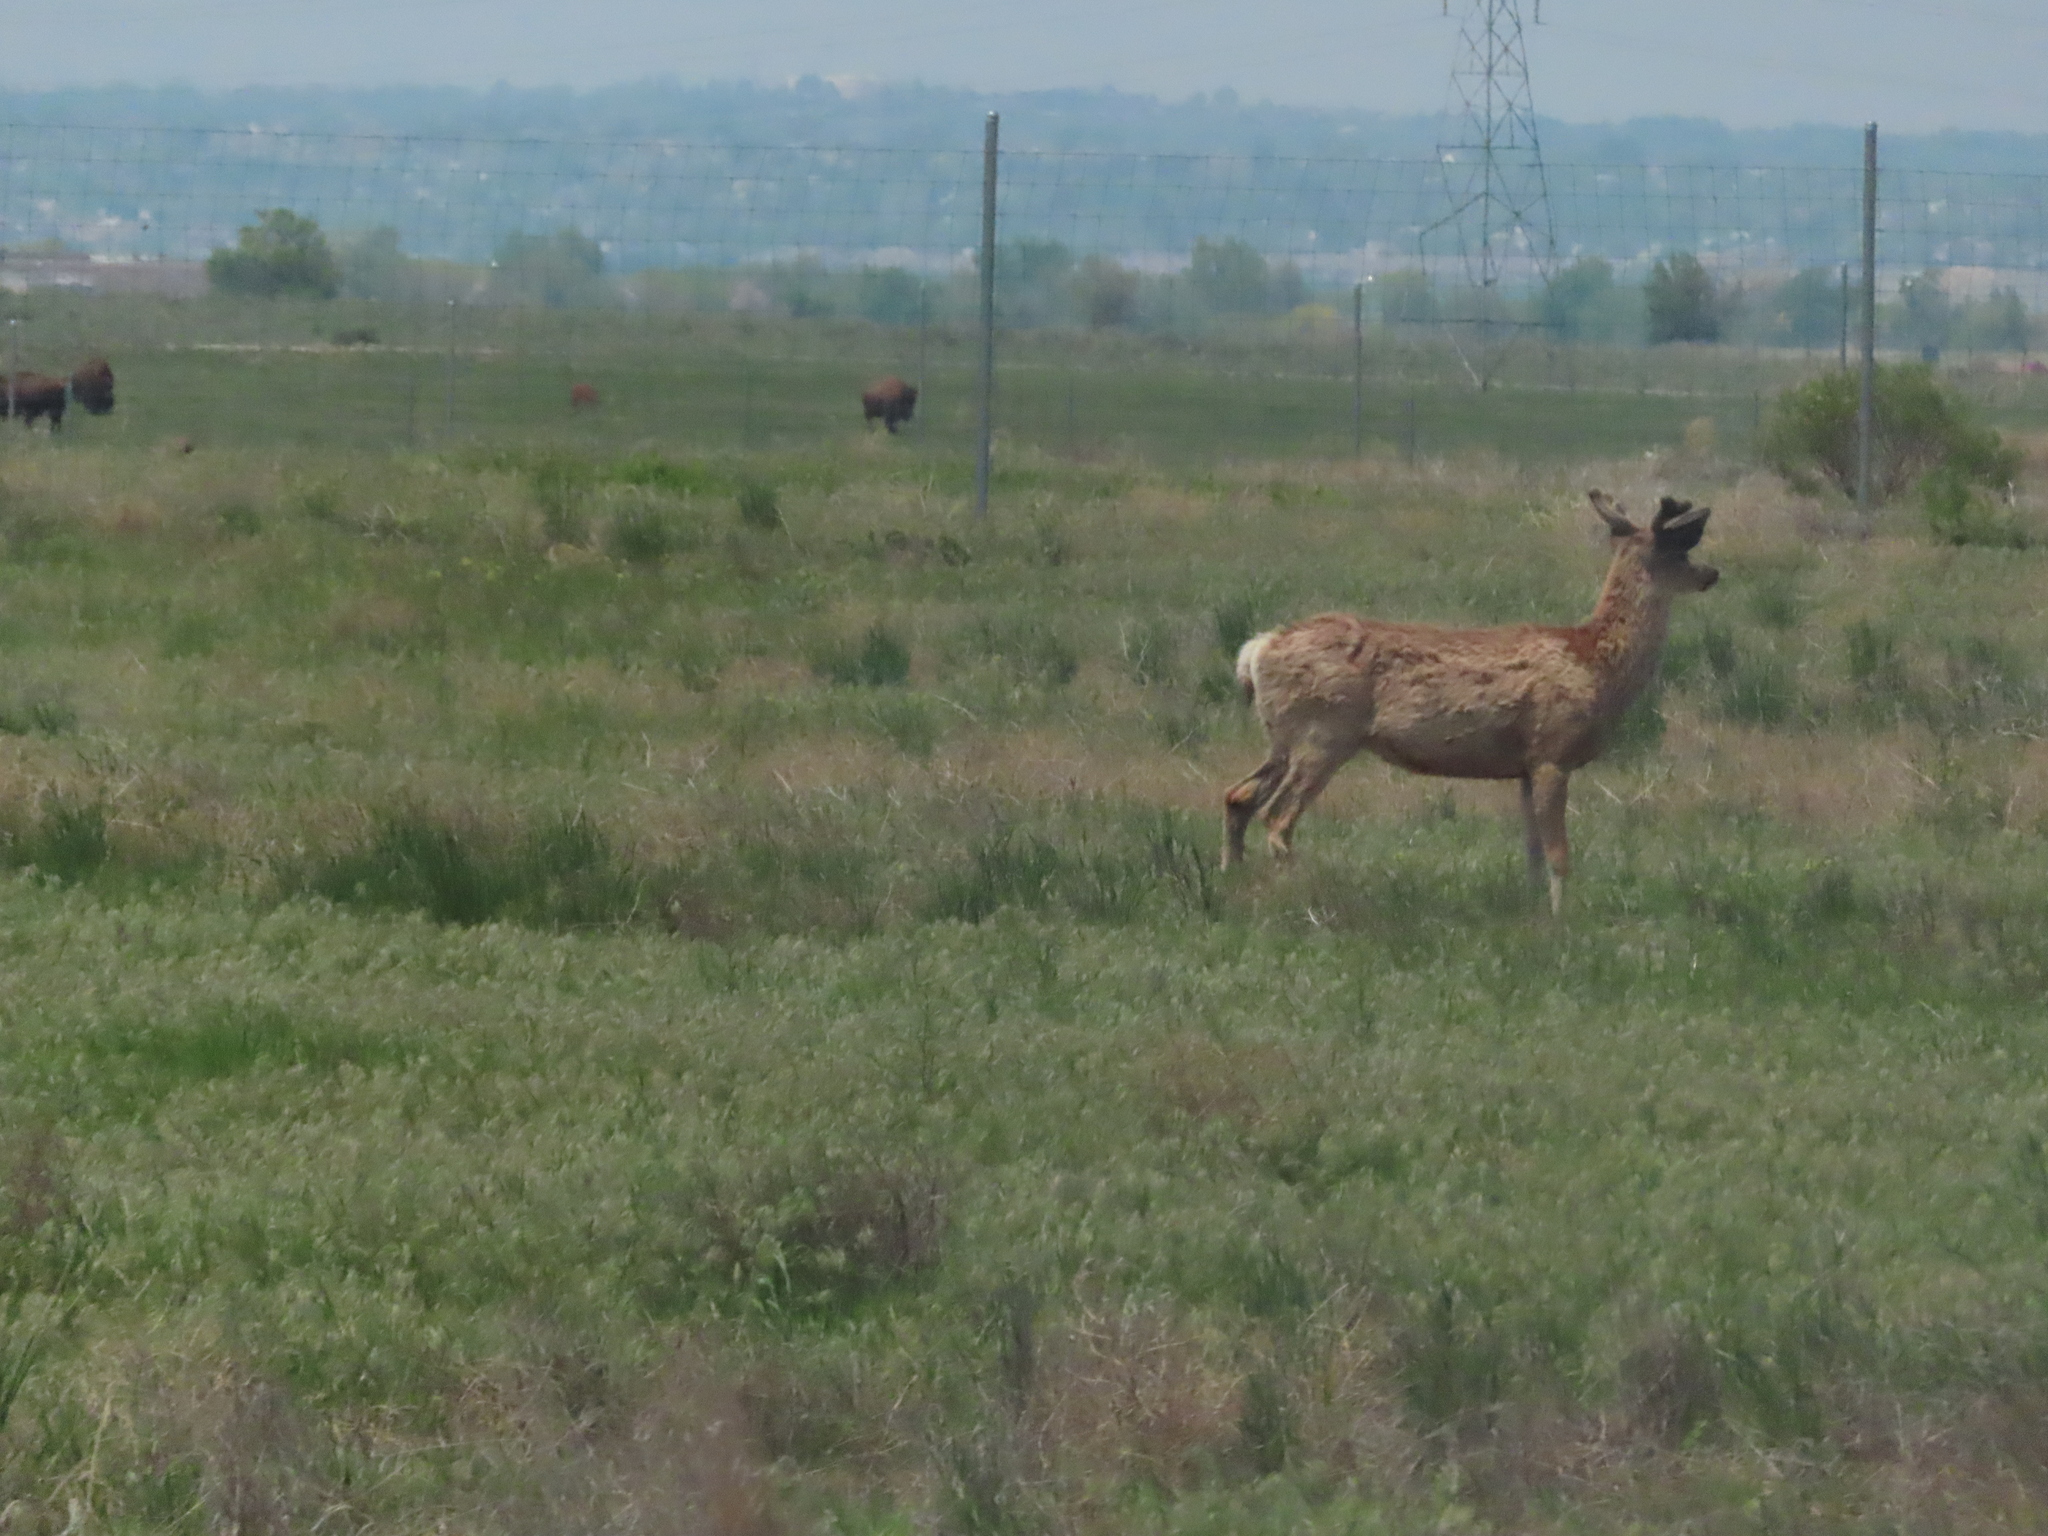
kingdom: Animalia
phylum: Chordata
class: Mammalia
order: Artiodactyla
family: Cervidae
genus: Odocoileus
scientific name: Odocoileus hemionus
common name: Mule deer
